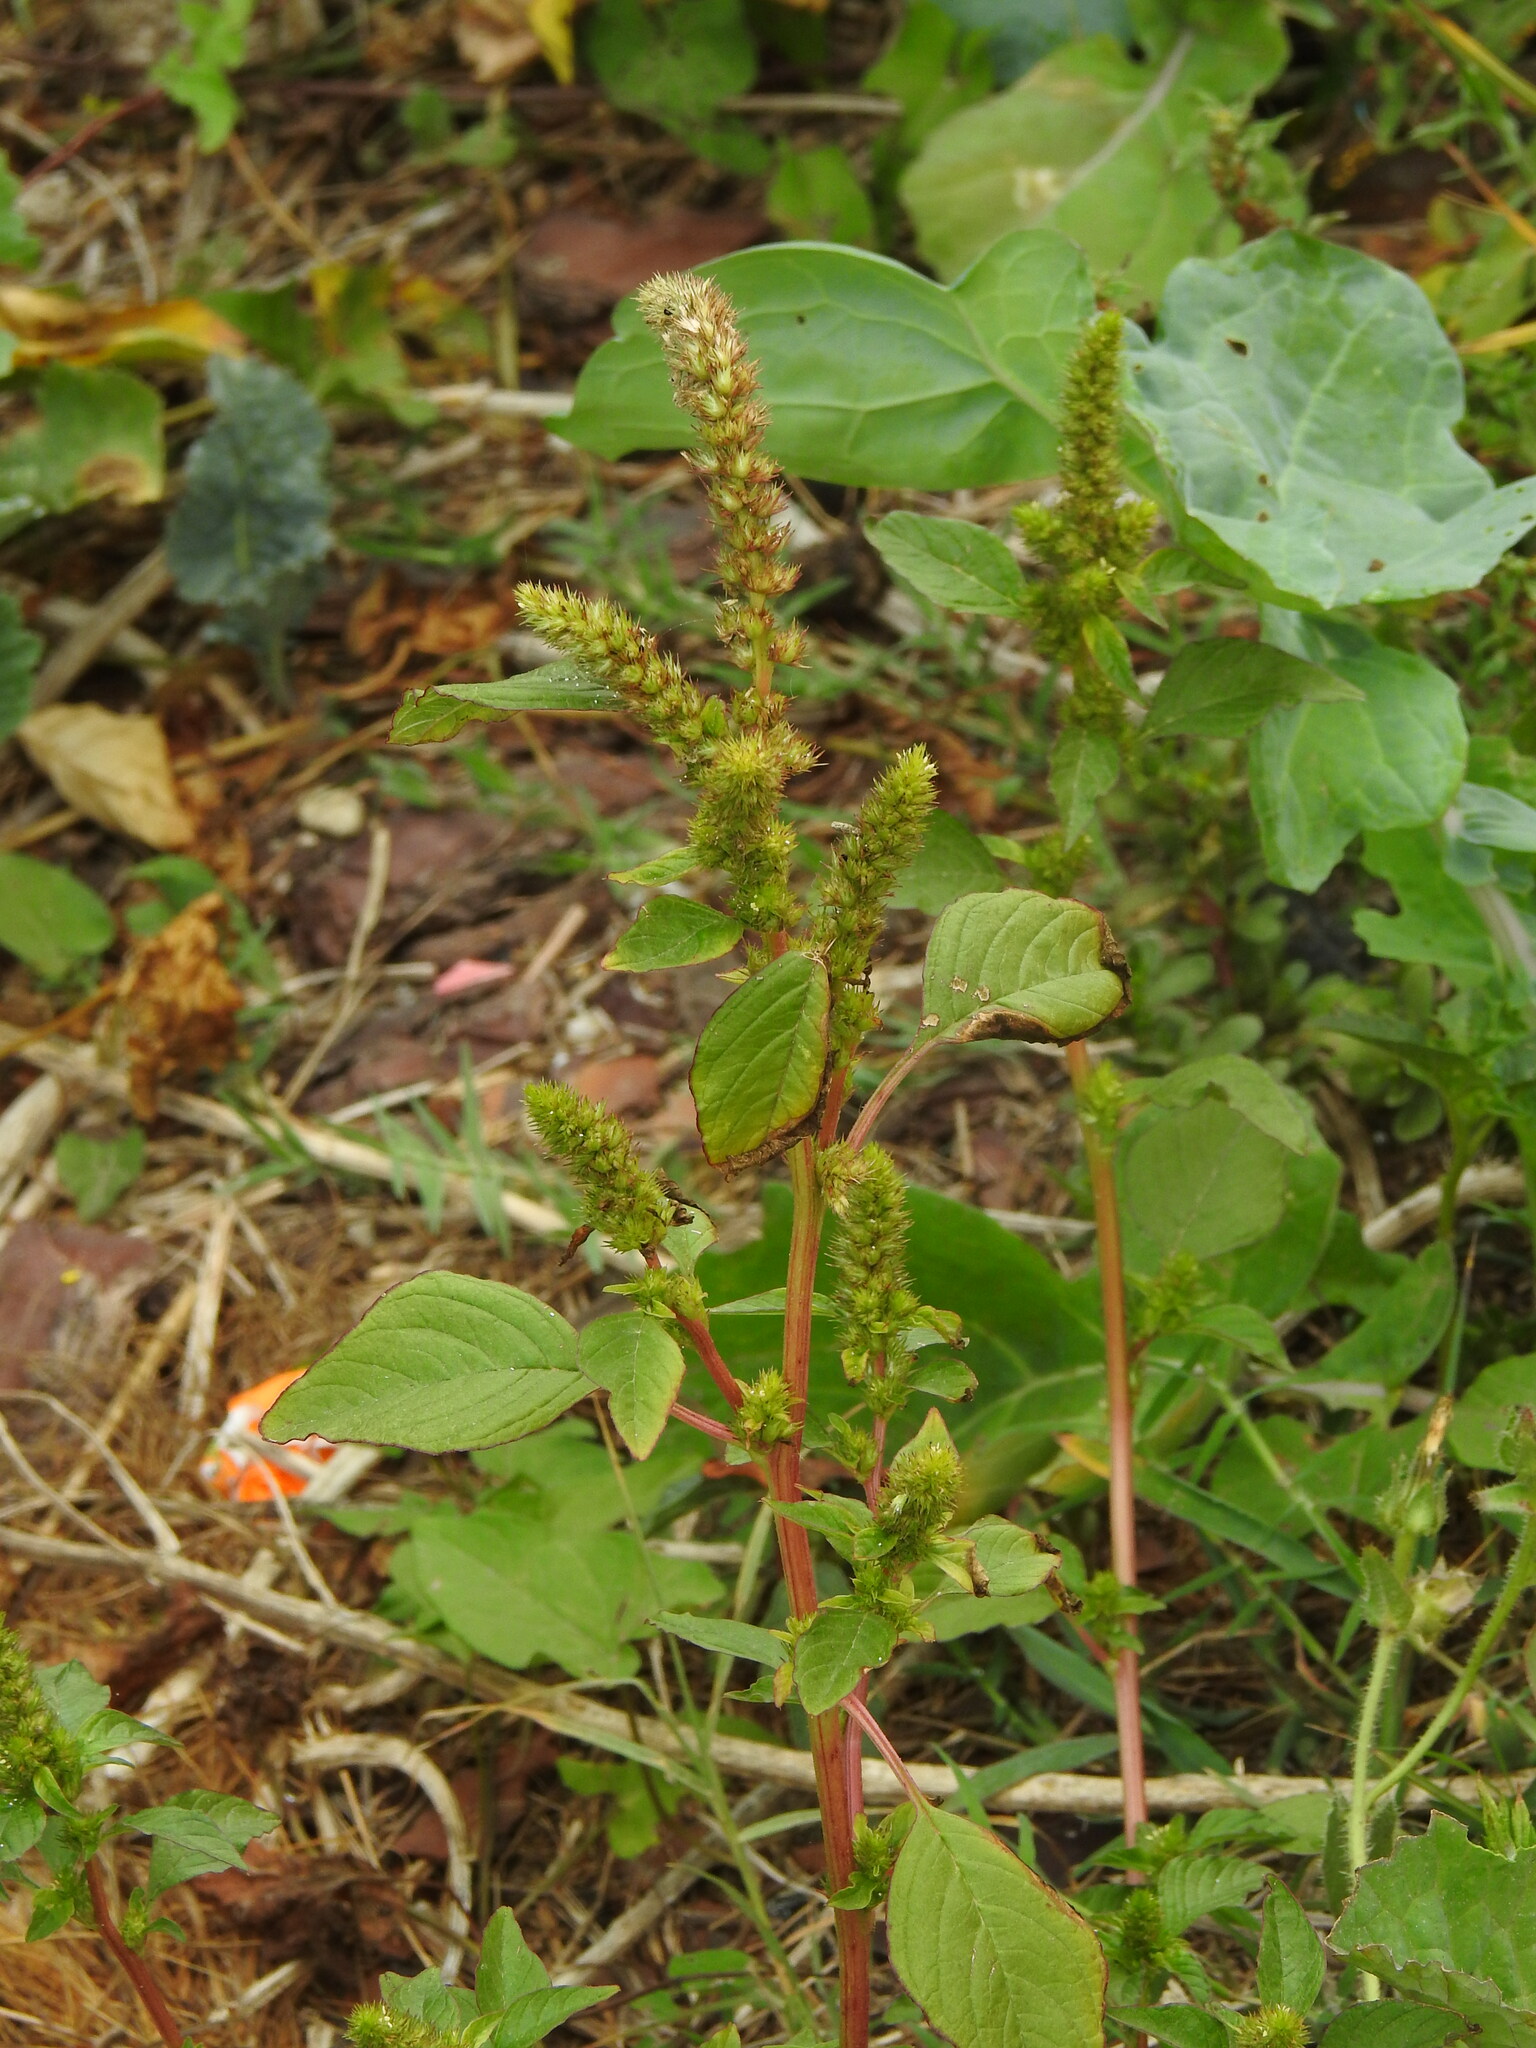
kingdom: Plantae
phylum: Tracheophyta
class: Magnoliopsida
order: Caryophyllales
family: Amaranthaceae
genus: Amaranthus
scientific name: Amaranthus powellii
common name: Powell's amaranth
